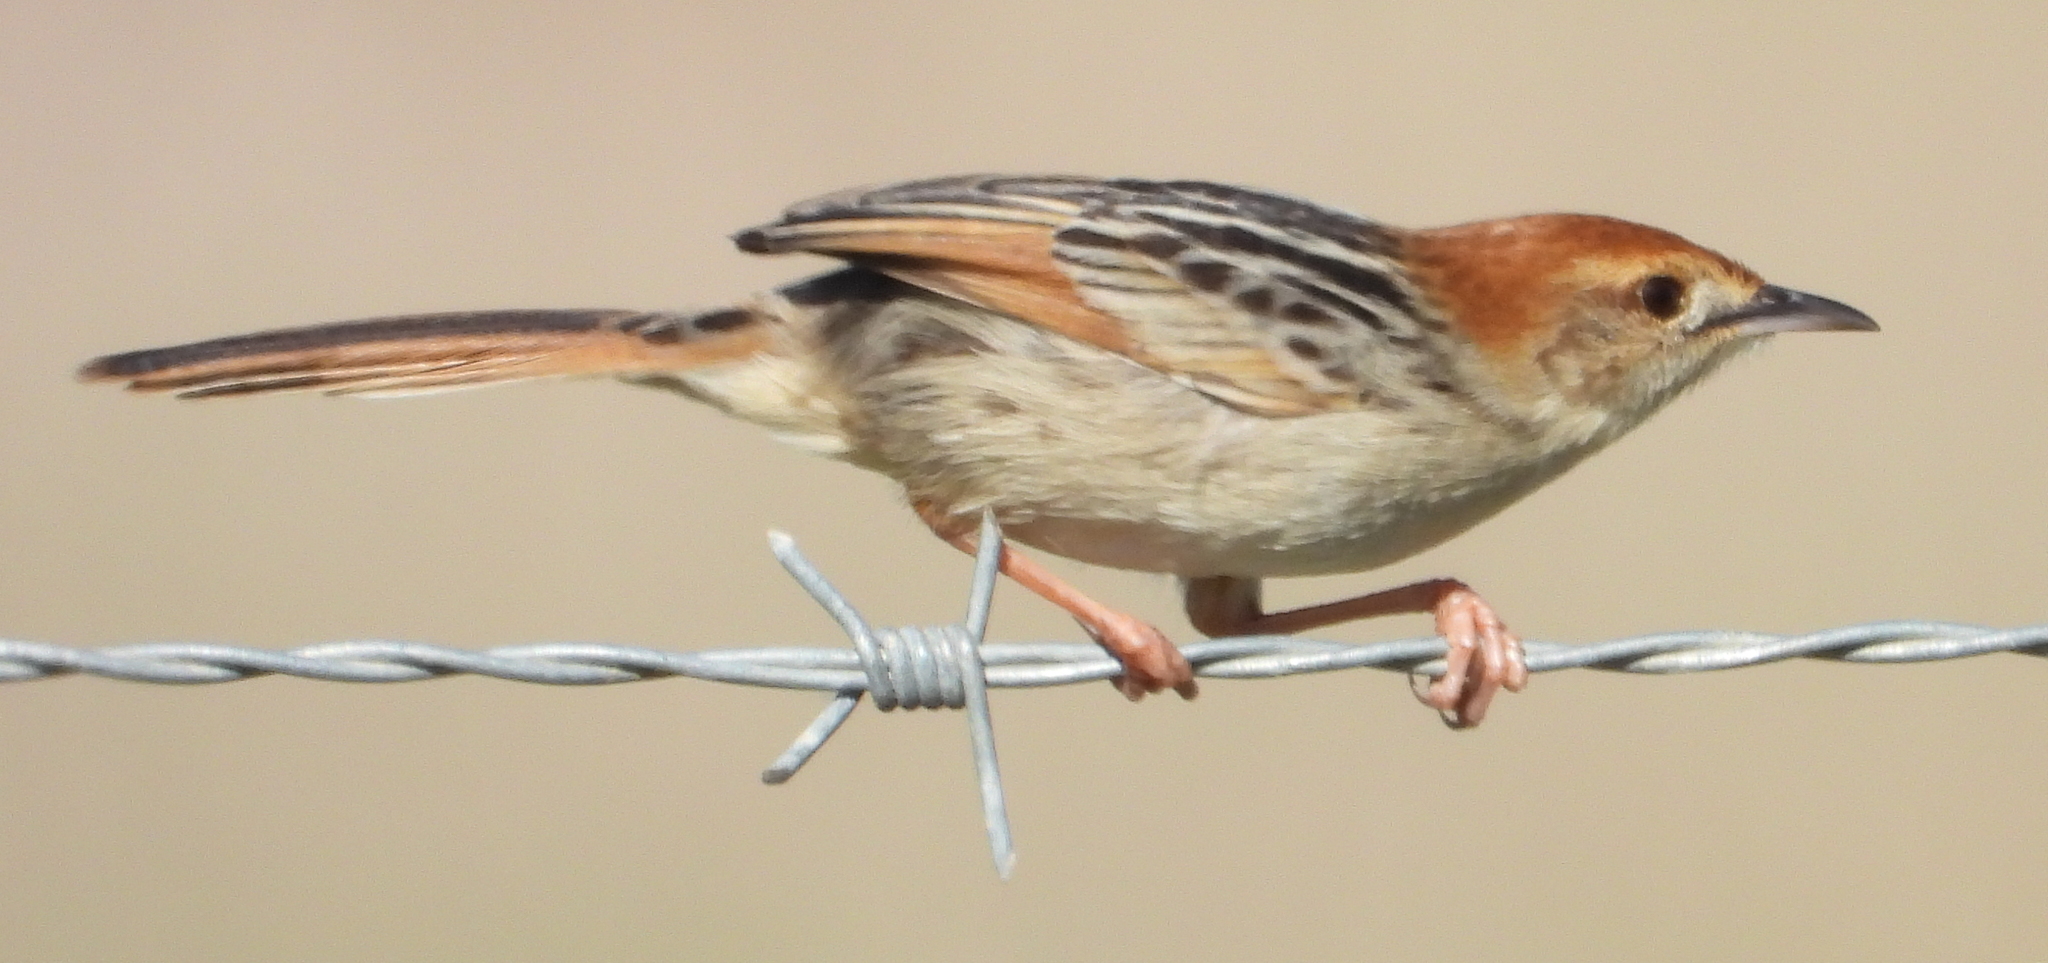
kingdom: Animalia
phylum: Chordata
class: Aves
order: Passeriformes
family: Cisticolidae
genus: Cisticola
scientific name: Cisticola tinniens
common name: Levaillant's cisticola
